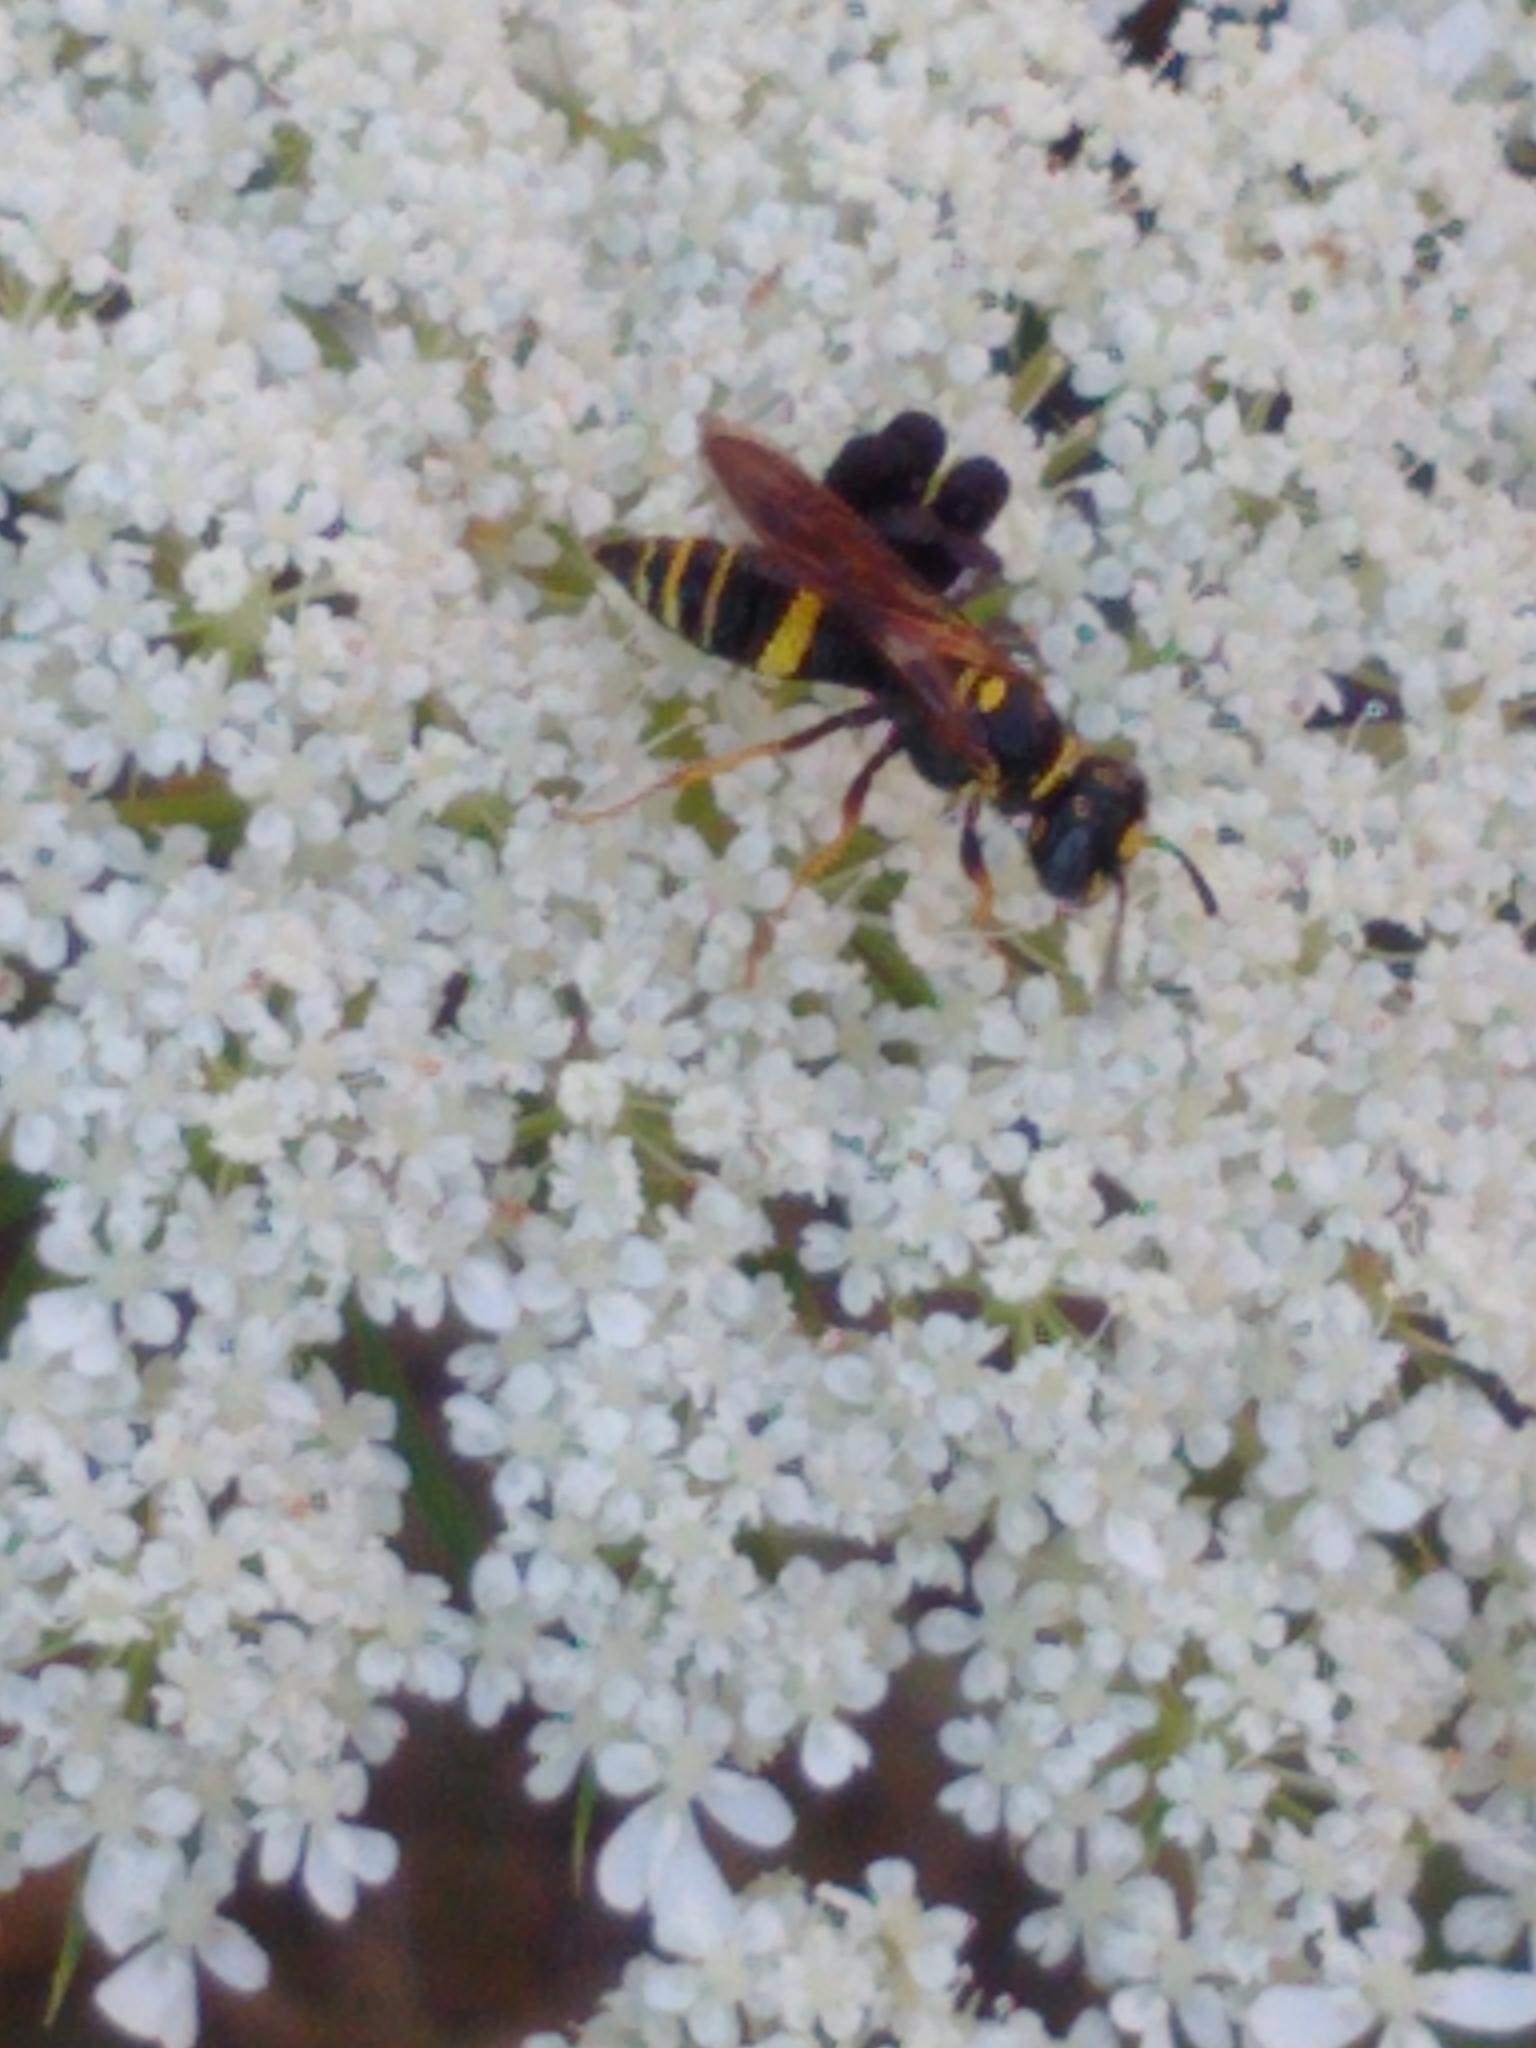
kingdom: Animalia
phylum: Arthropoda
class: Insecta
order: Hymenoptera
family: Crabronidae
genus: Philanthus
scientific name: Philanthus gibbosus
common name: Humped beewolf
